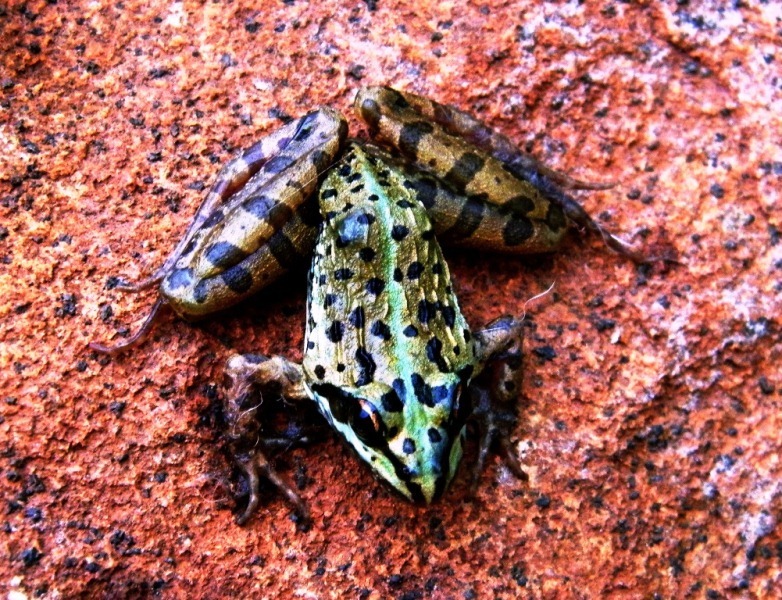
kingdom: Animalia
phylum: Chordata
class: Amphibia
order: Anura
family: Pyxicephalidae
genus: Amietia
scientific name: Amietia delalandii
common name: Delalande's river frog
